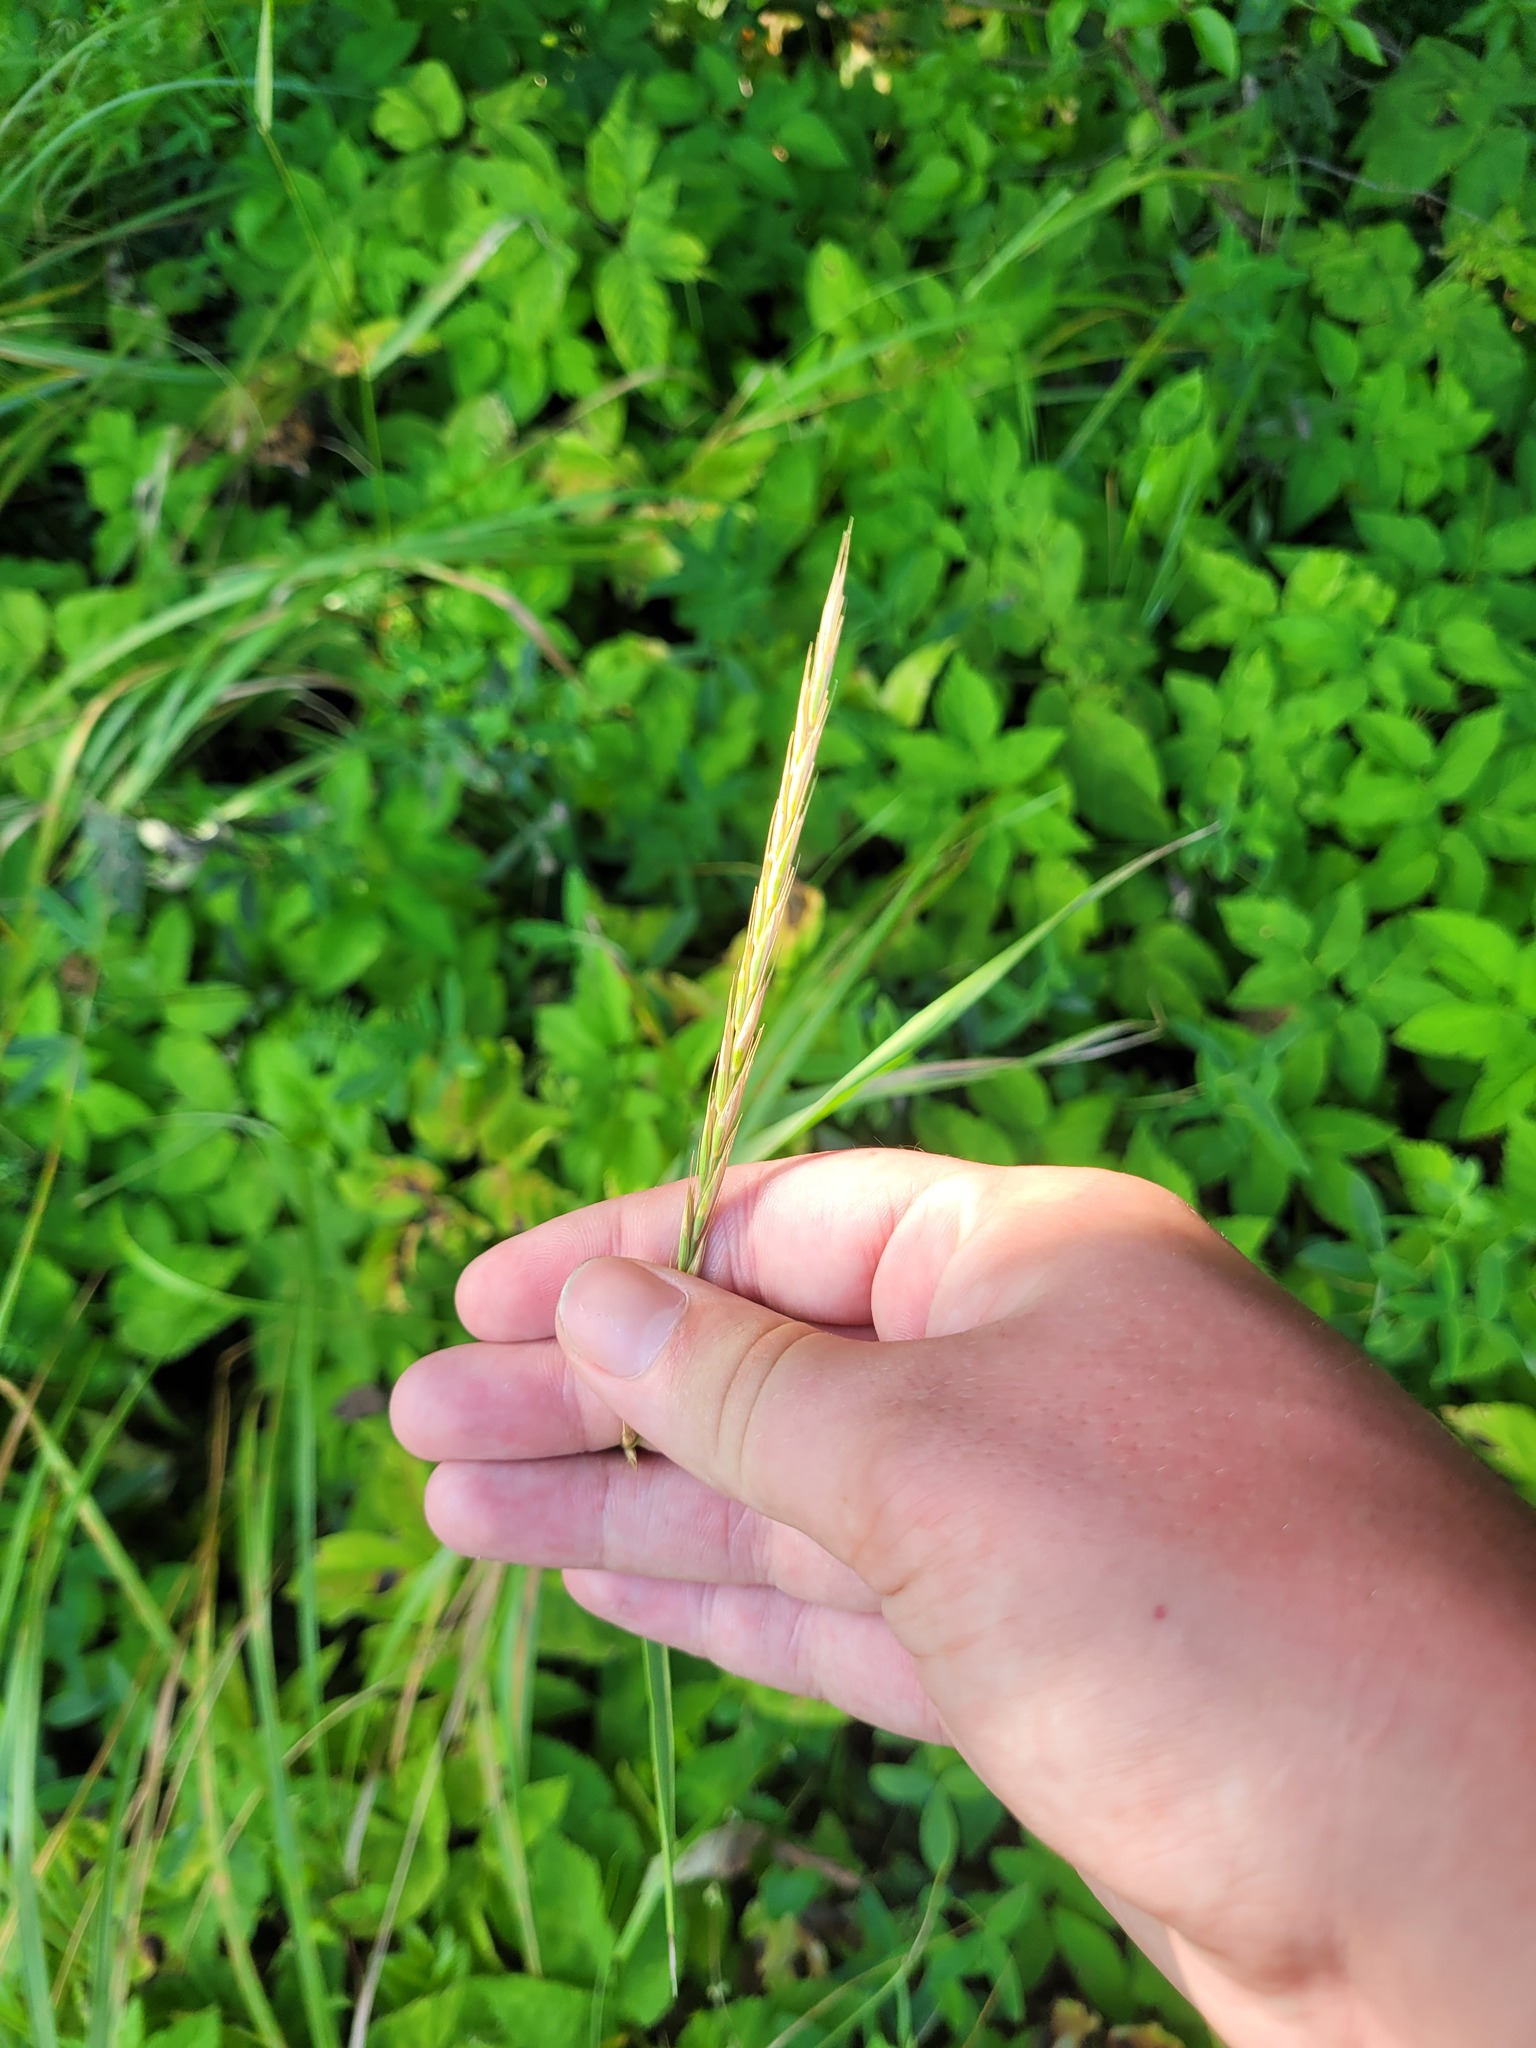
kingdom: Plantae
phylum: Tracheophyta
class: Liliopsida
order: Poales
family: Poaceae
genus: Elymus
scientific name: Elymus repens
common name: Quackgrass
